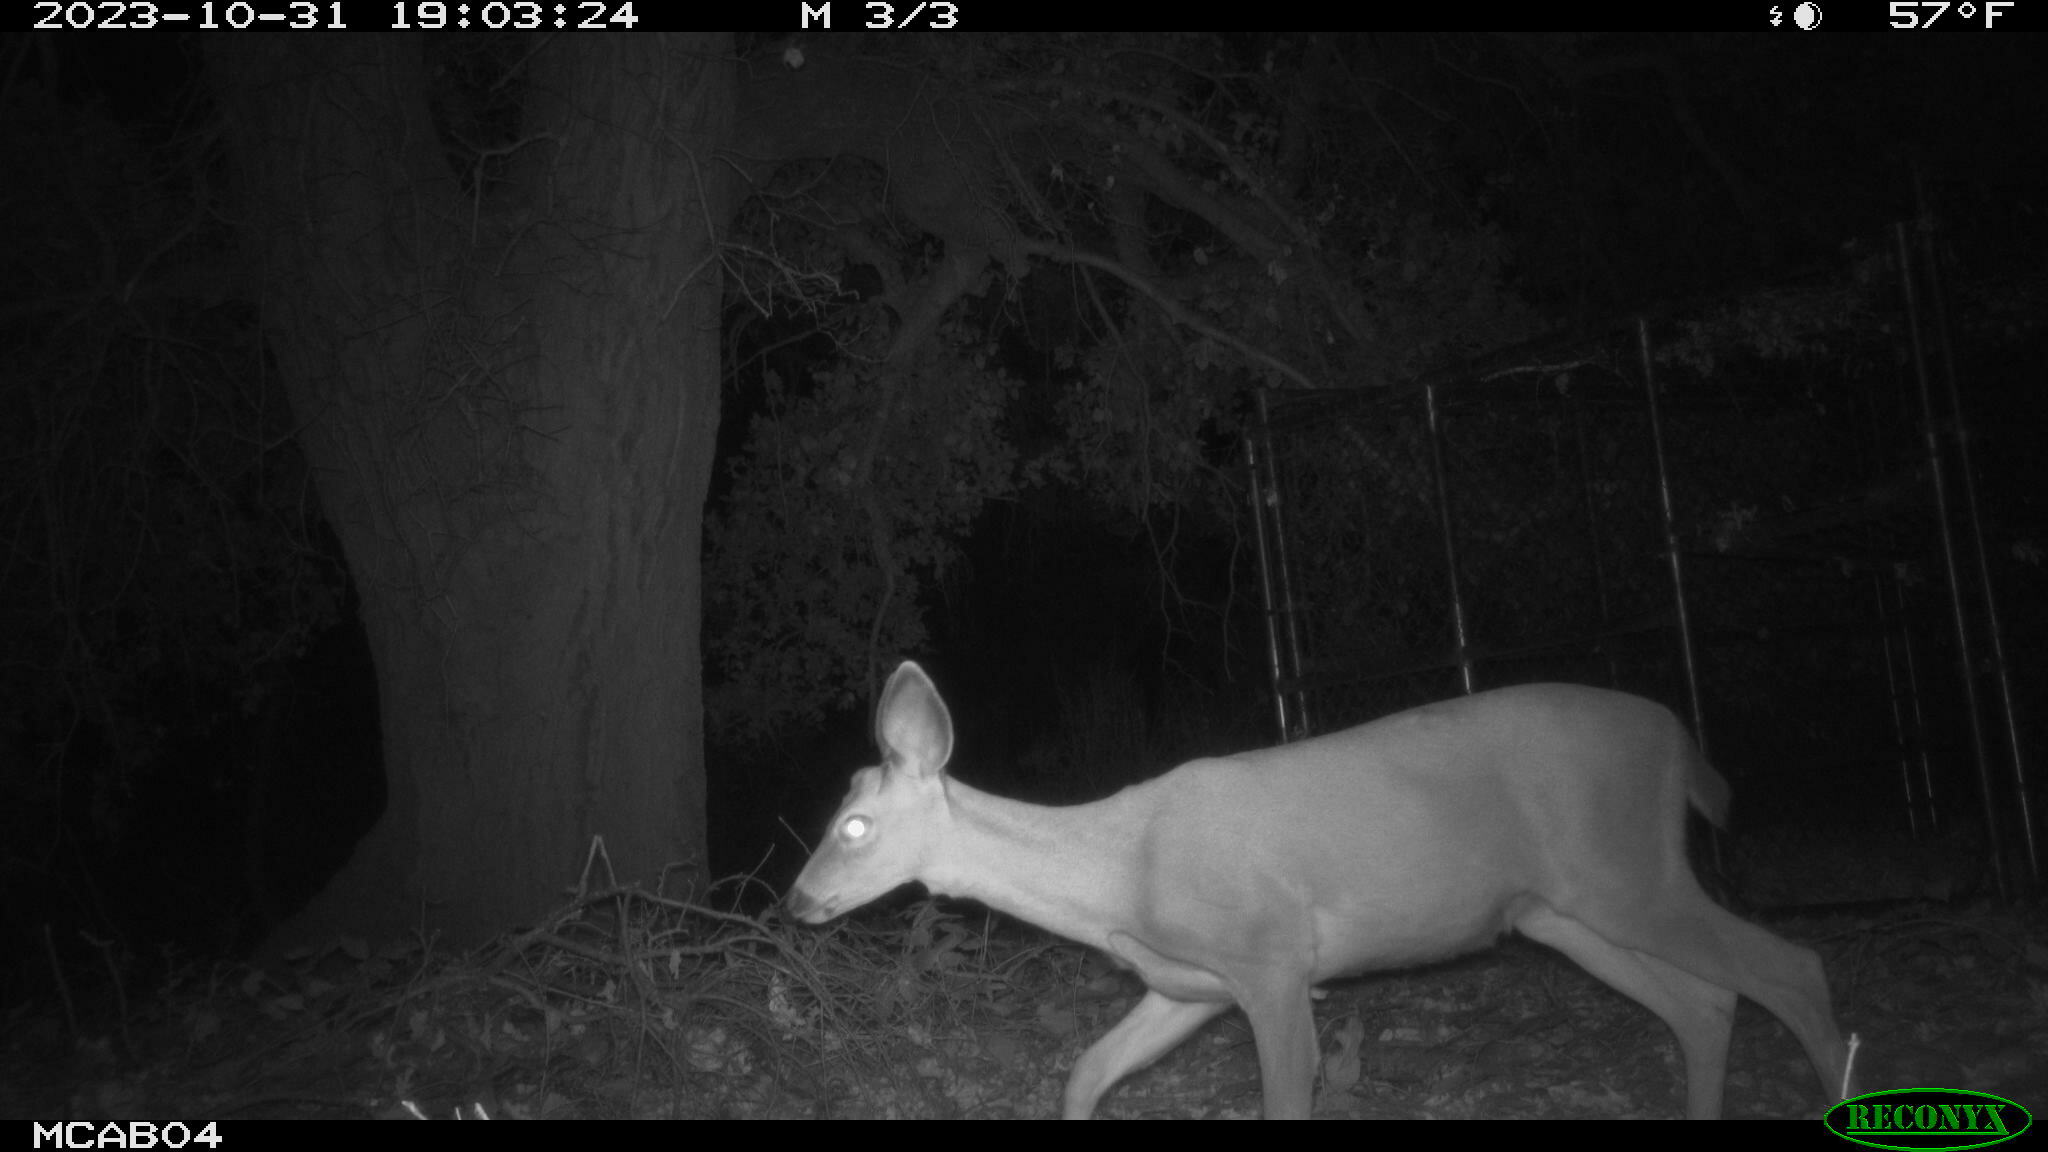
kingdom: Animalia
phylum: Chordata
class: Mammalia
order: Artiodactyla
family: Cervidae
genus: Odocoileus
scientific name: Odocoileus hemionus
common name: Mule deer
